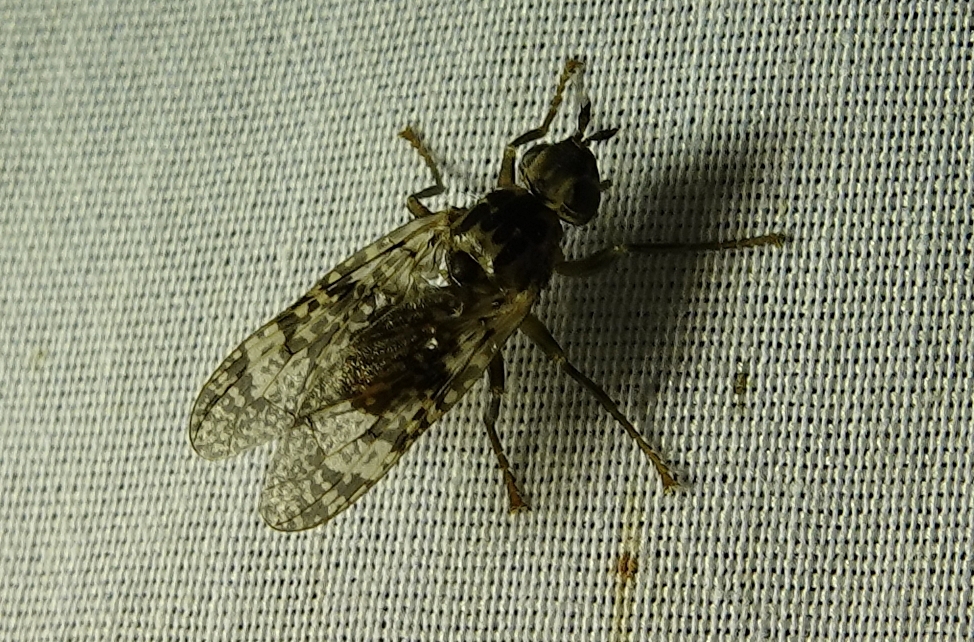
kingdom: Animalia
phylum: Arthropoda
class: Insecta
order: Diptera
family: Pyrgotidae
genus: Pyrgota
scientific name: Pyrgota valida
